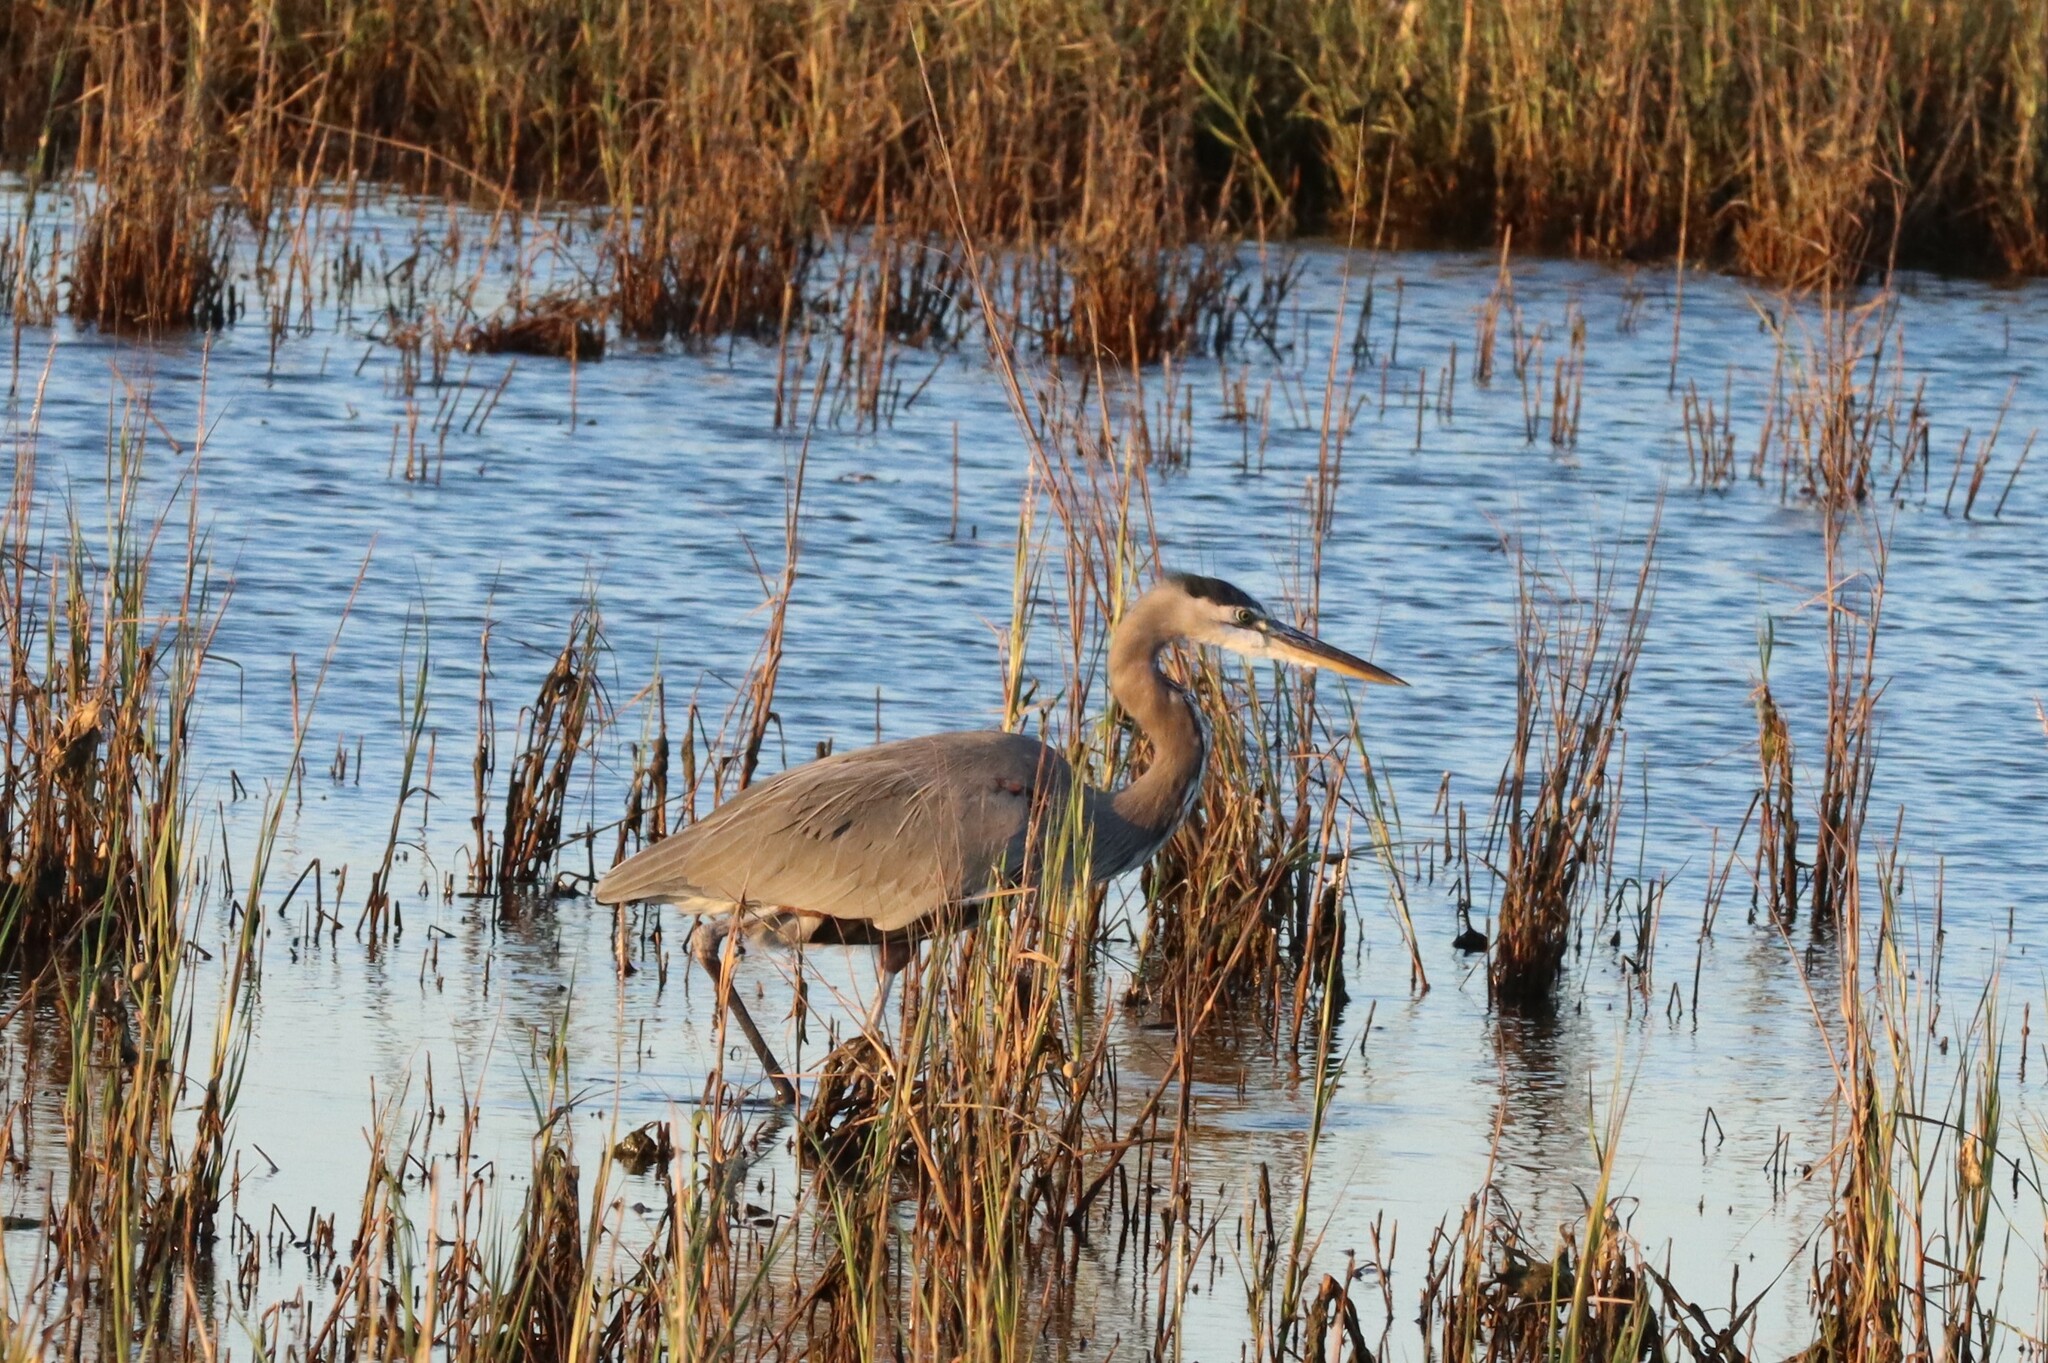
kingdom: Animalia
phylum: Chordata
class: Aves
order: Pelecaniformes
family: Ardeidae
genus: Ardea
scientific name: Ardea herodias
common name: Great blue heron
